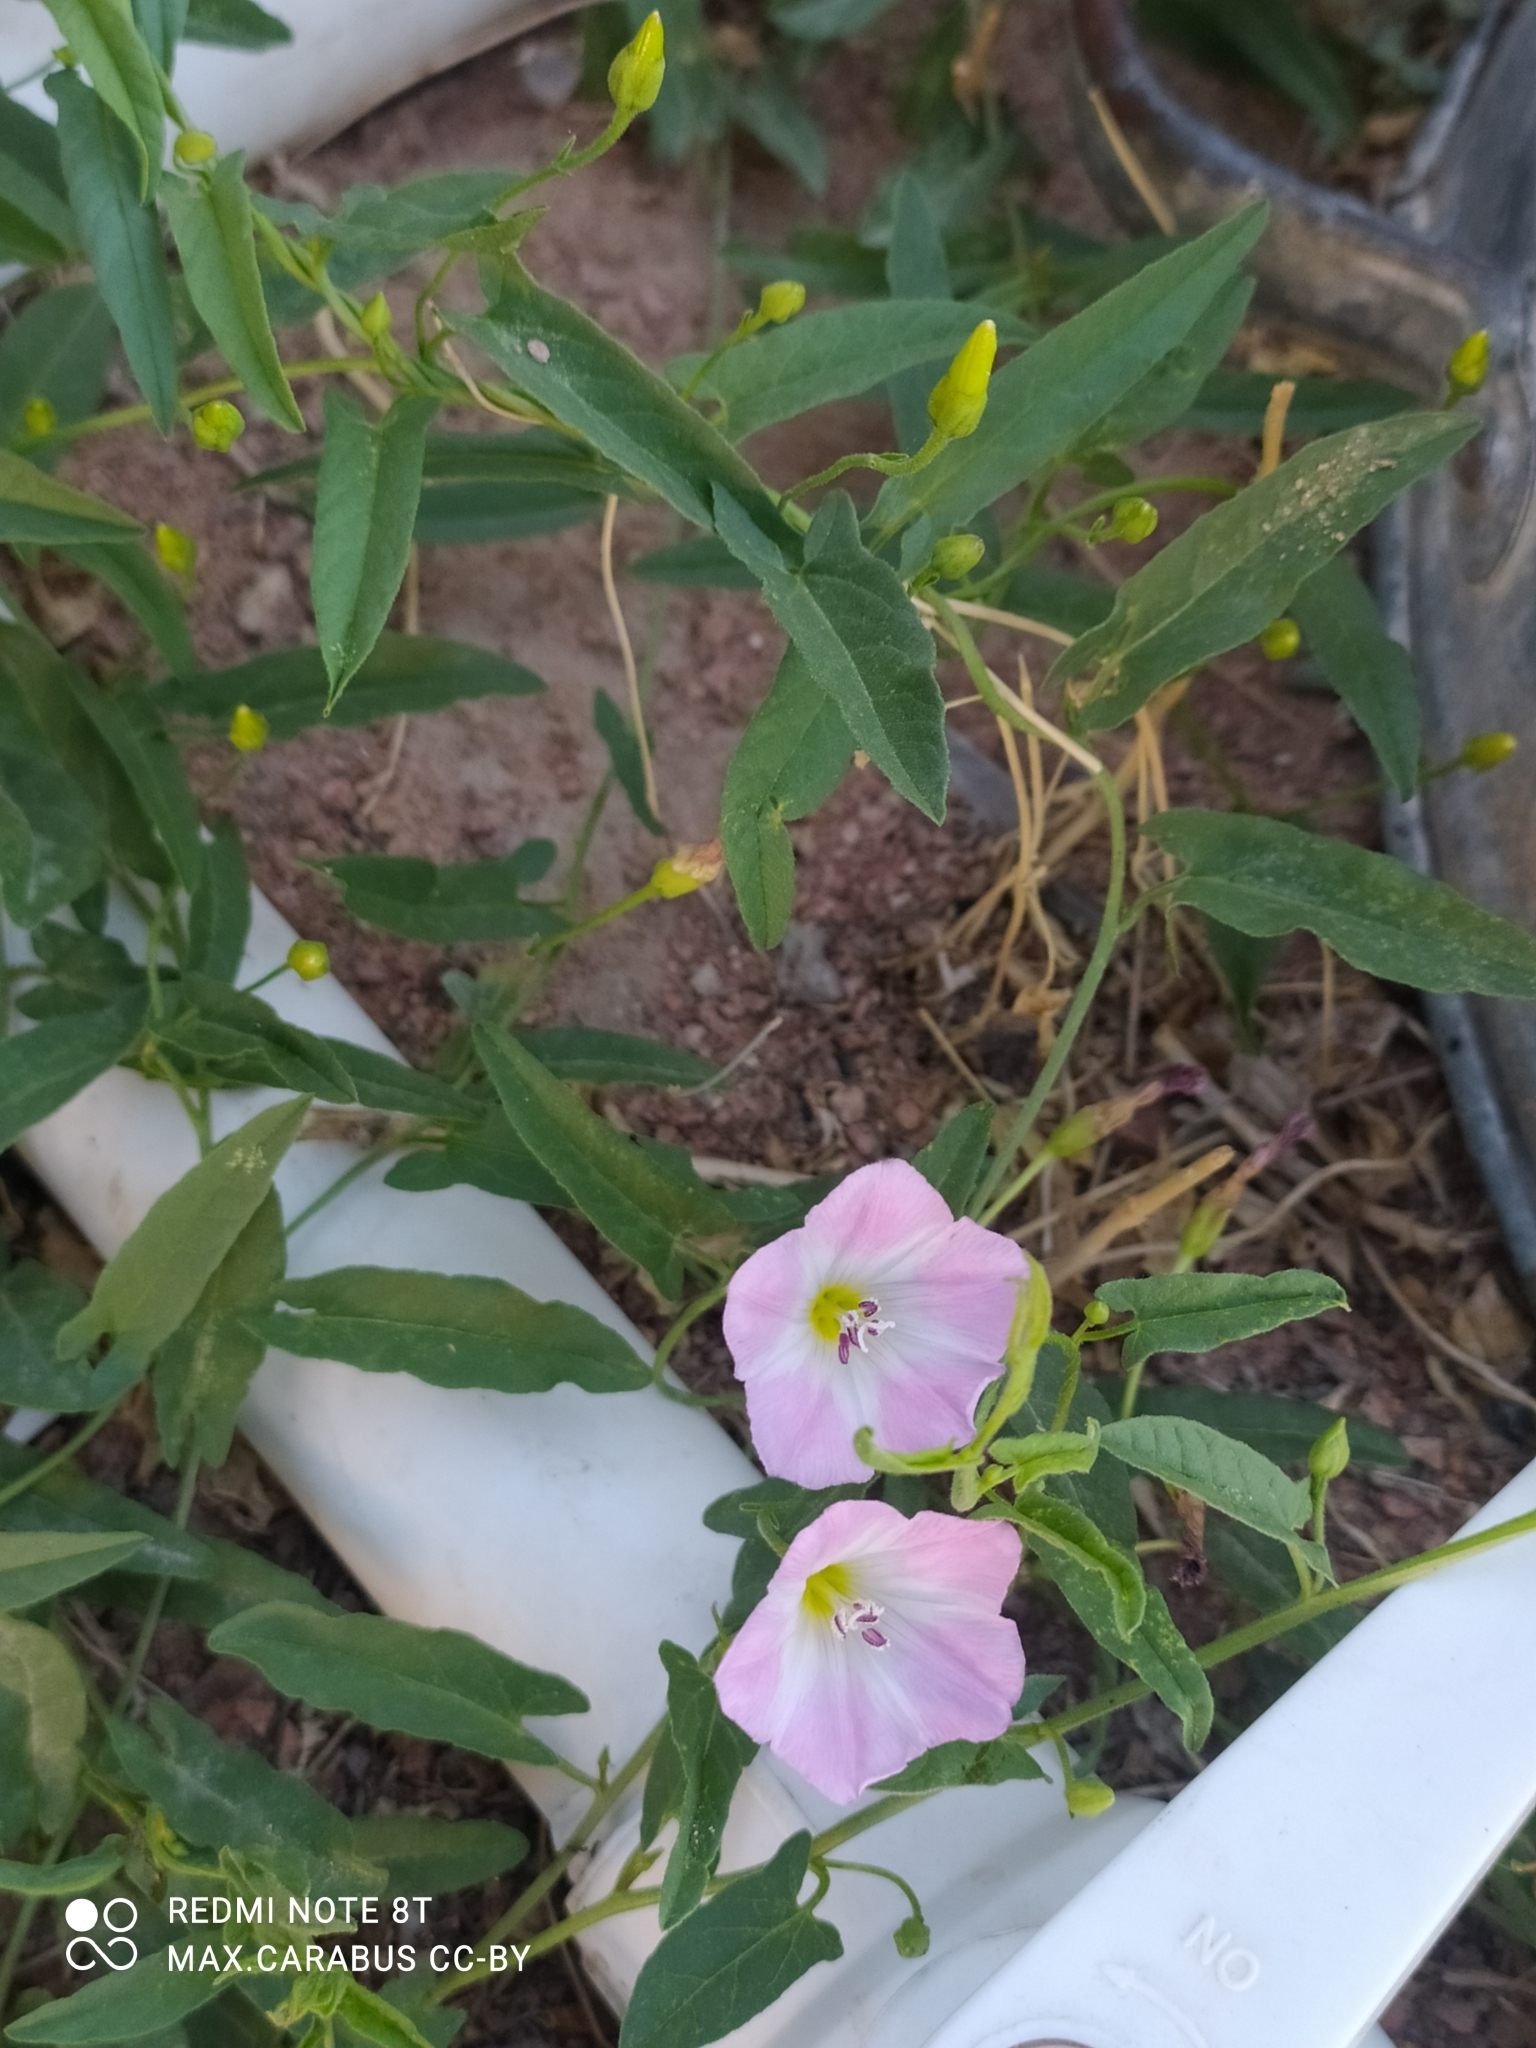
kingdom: Plantae
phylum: Tracheophyta
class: Magnoliopsida
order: Solanales
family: Convolvulaceae
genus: Convolvulus
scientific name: Convolvulus arvensis
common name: Field bindweed
